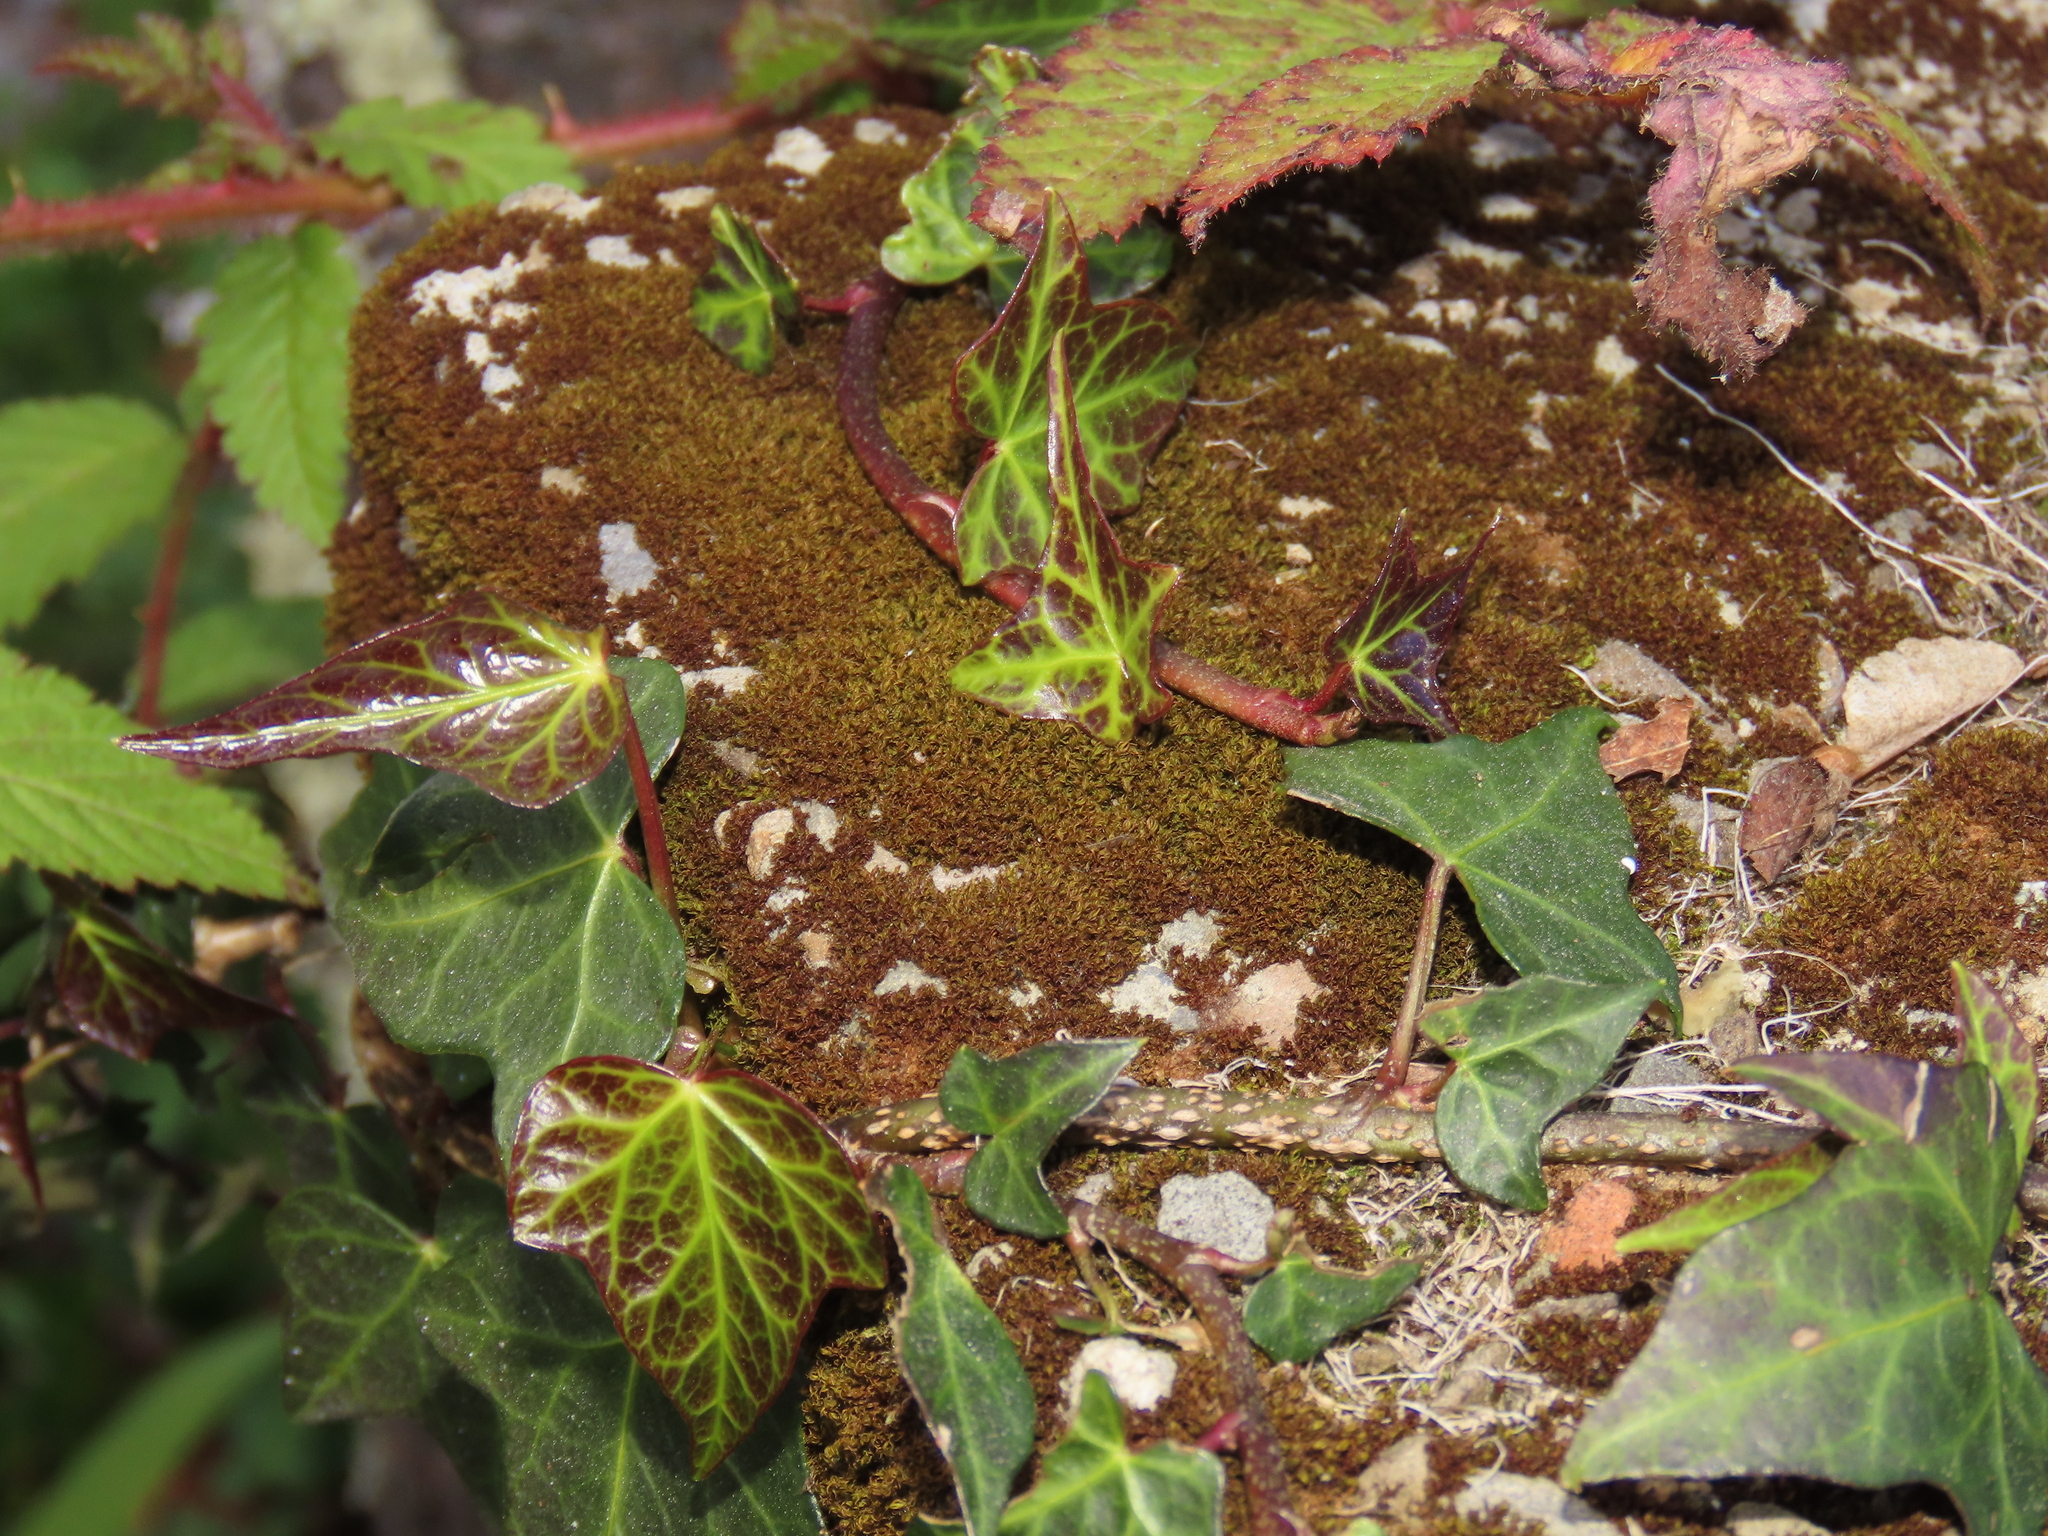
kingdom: Plantae
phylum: Tracheophyta
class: Magnoliopsida
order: Apiales
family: Araliaceae
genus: Hedera
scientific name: Hedera rhombea
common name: Japanese ivy
